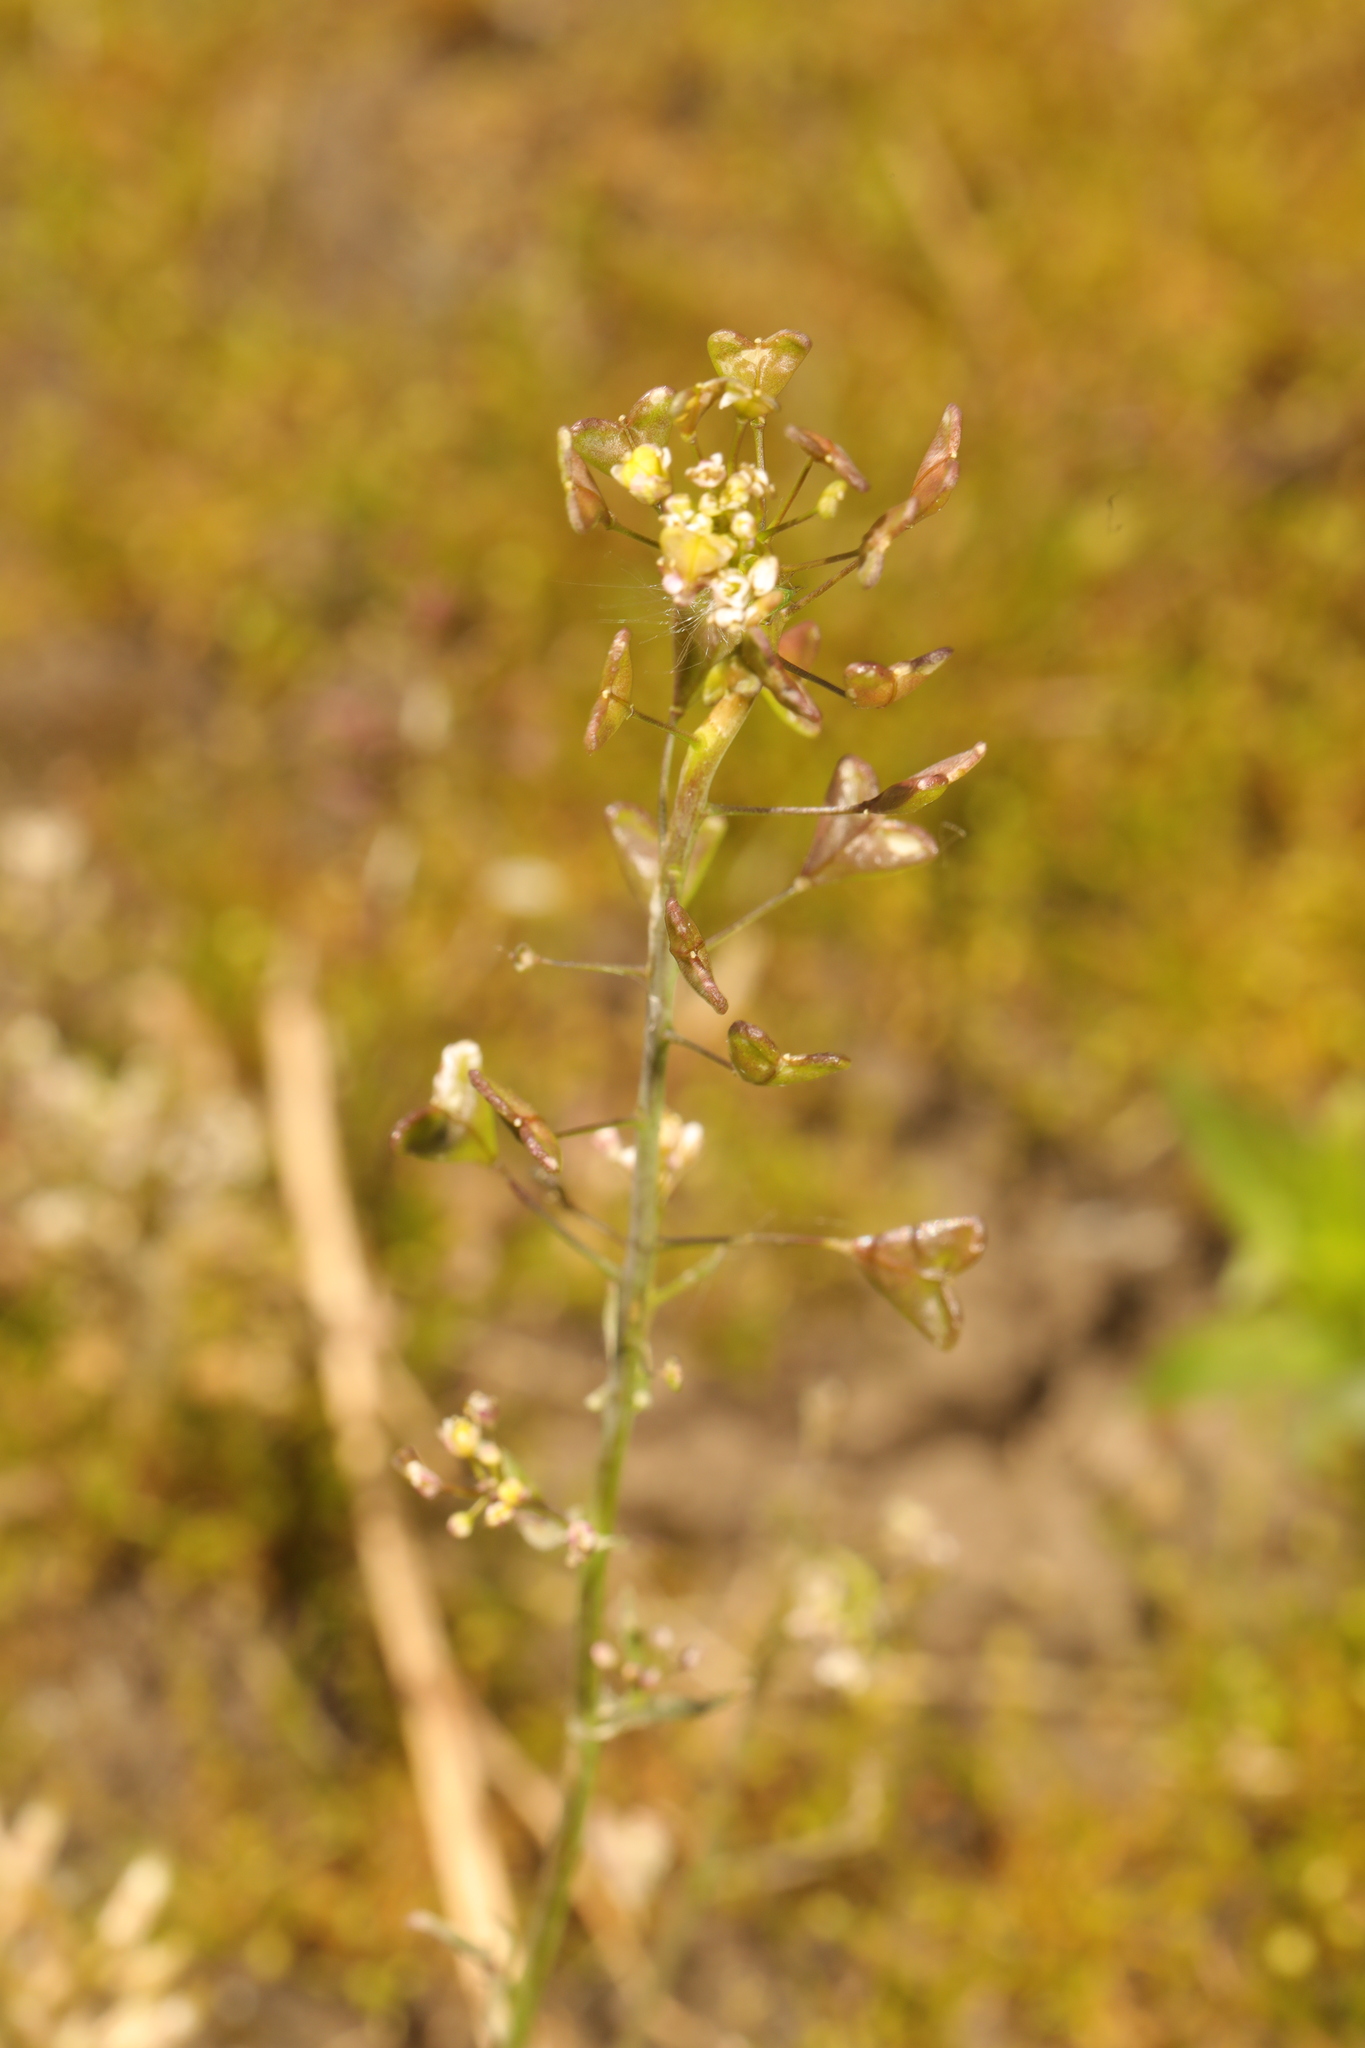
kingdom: Plantae
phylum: Tracheophyta
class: Magnoliopsida
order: Brassicales
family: Brassicaceae
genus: Capsella
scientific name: Capsella bursa-pastoris
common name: Shepherd's purse
